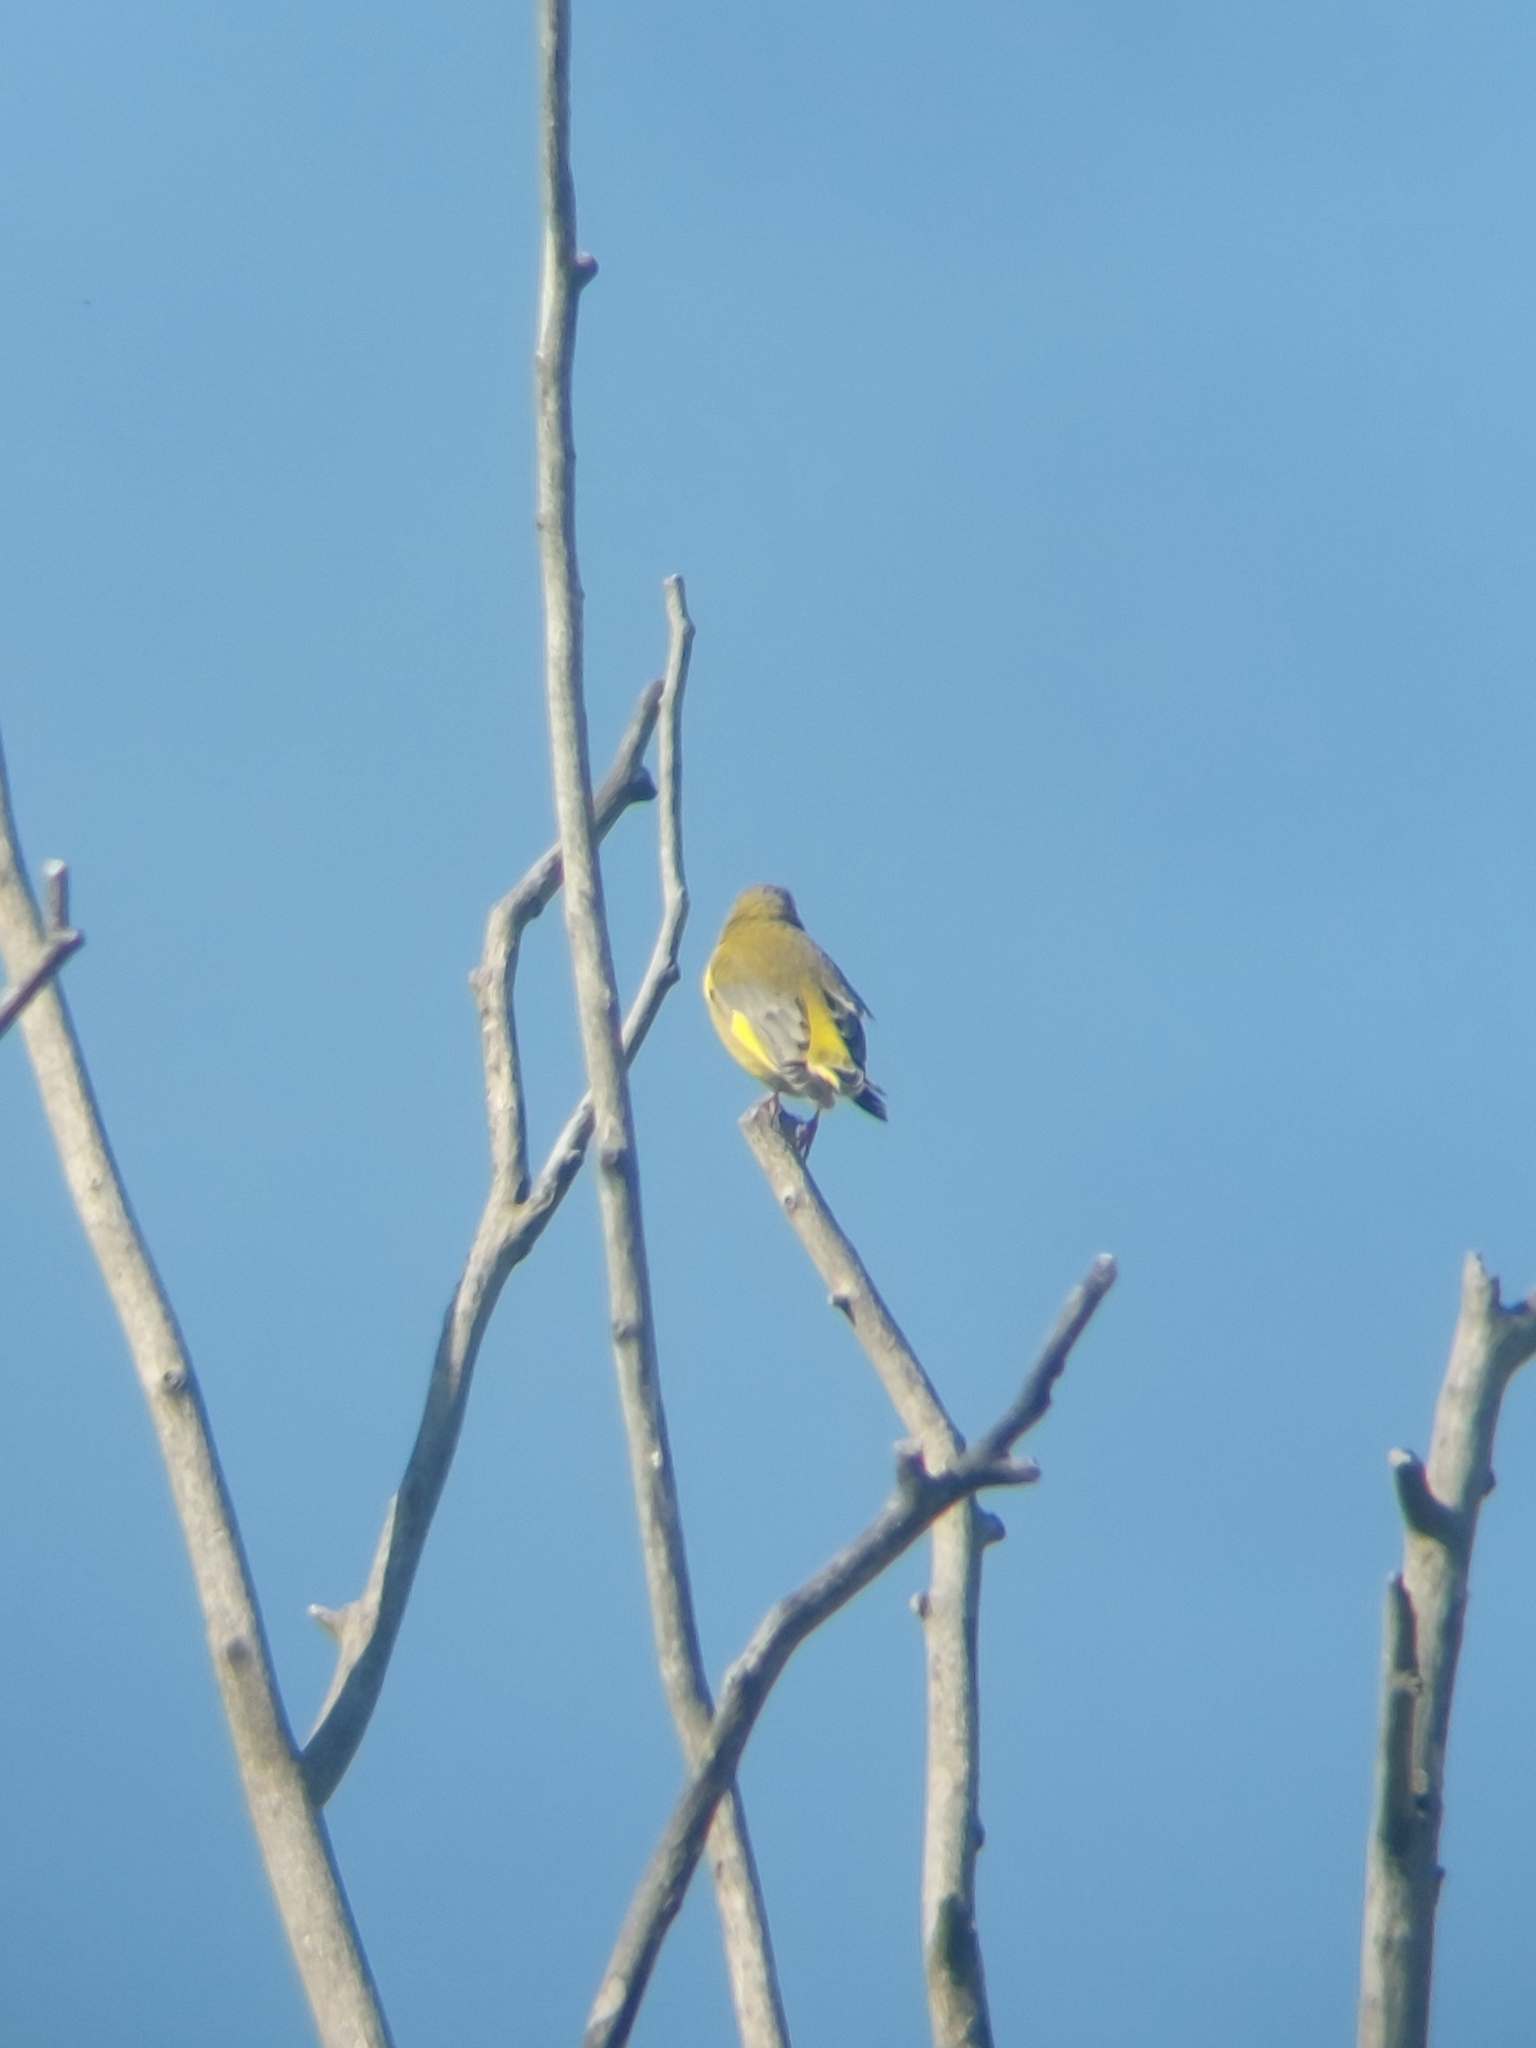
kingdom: Plantae
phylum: Tracheophyta
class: Liliopsida
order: Poales
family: Poaceae
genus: Chloris
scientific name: Chloris chloris
